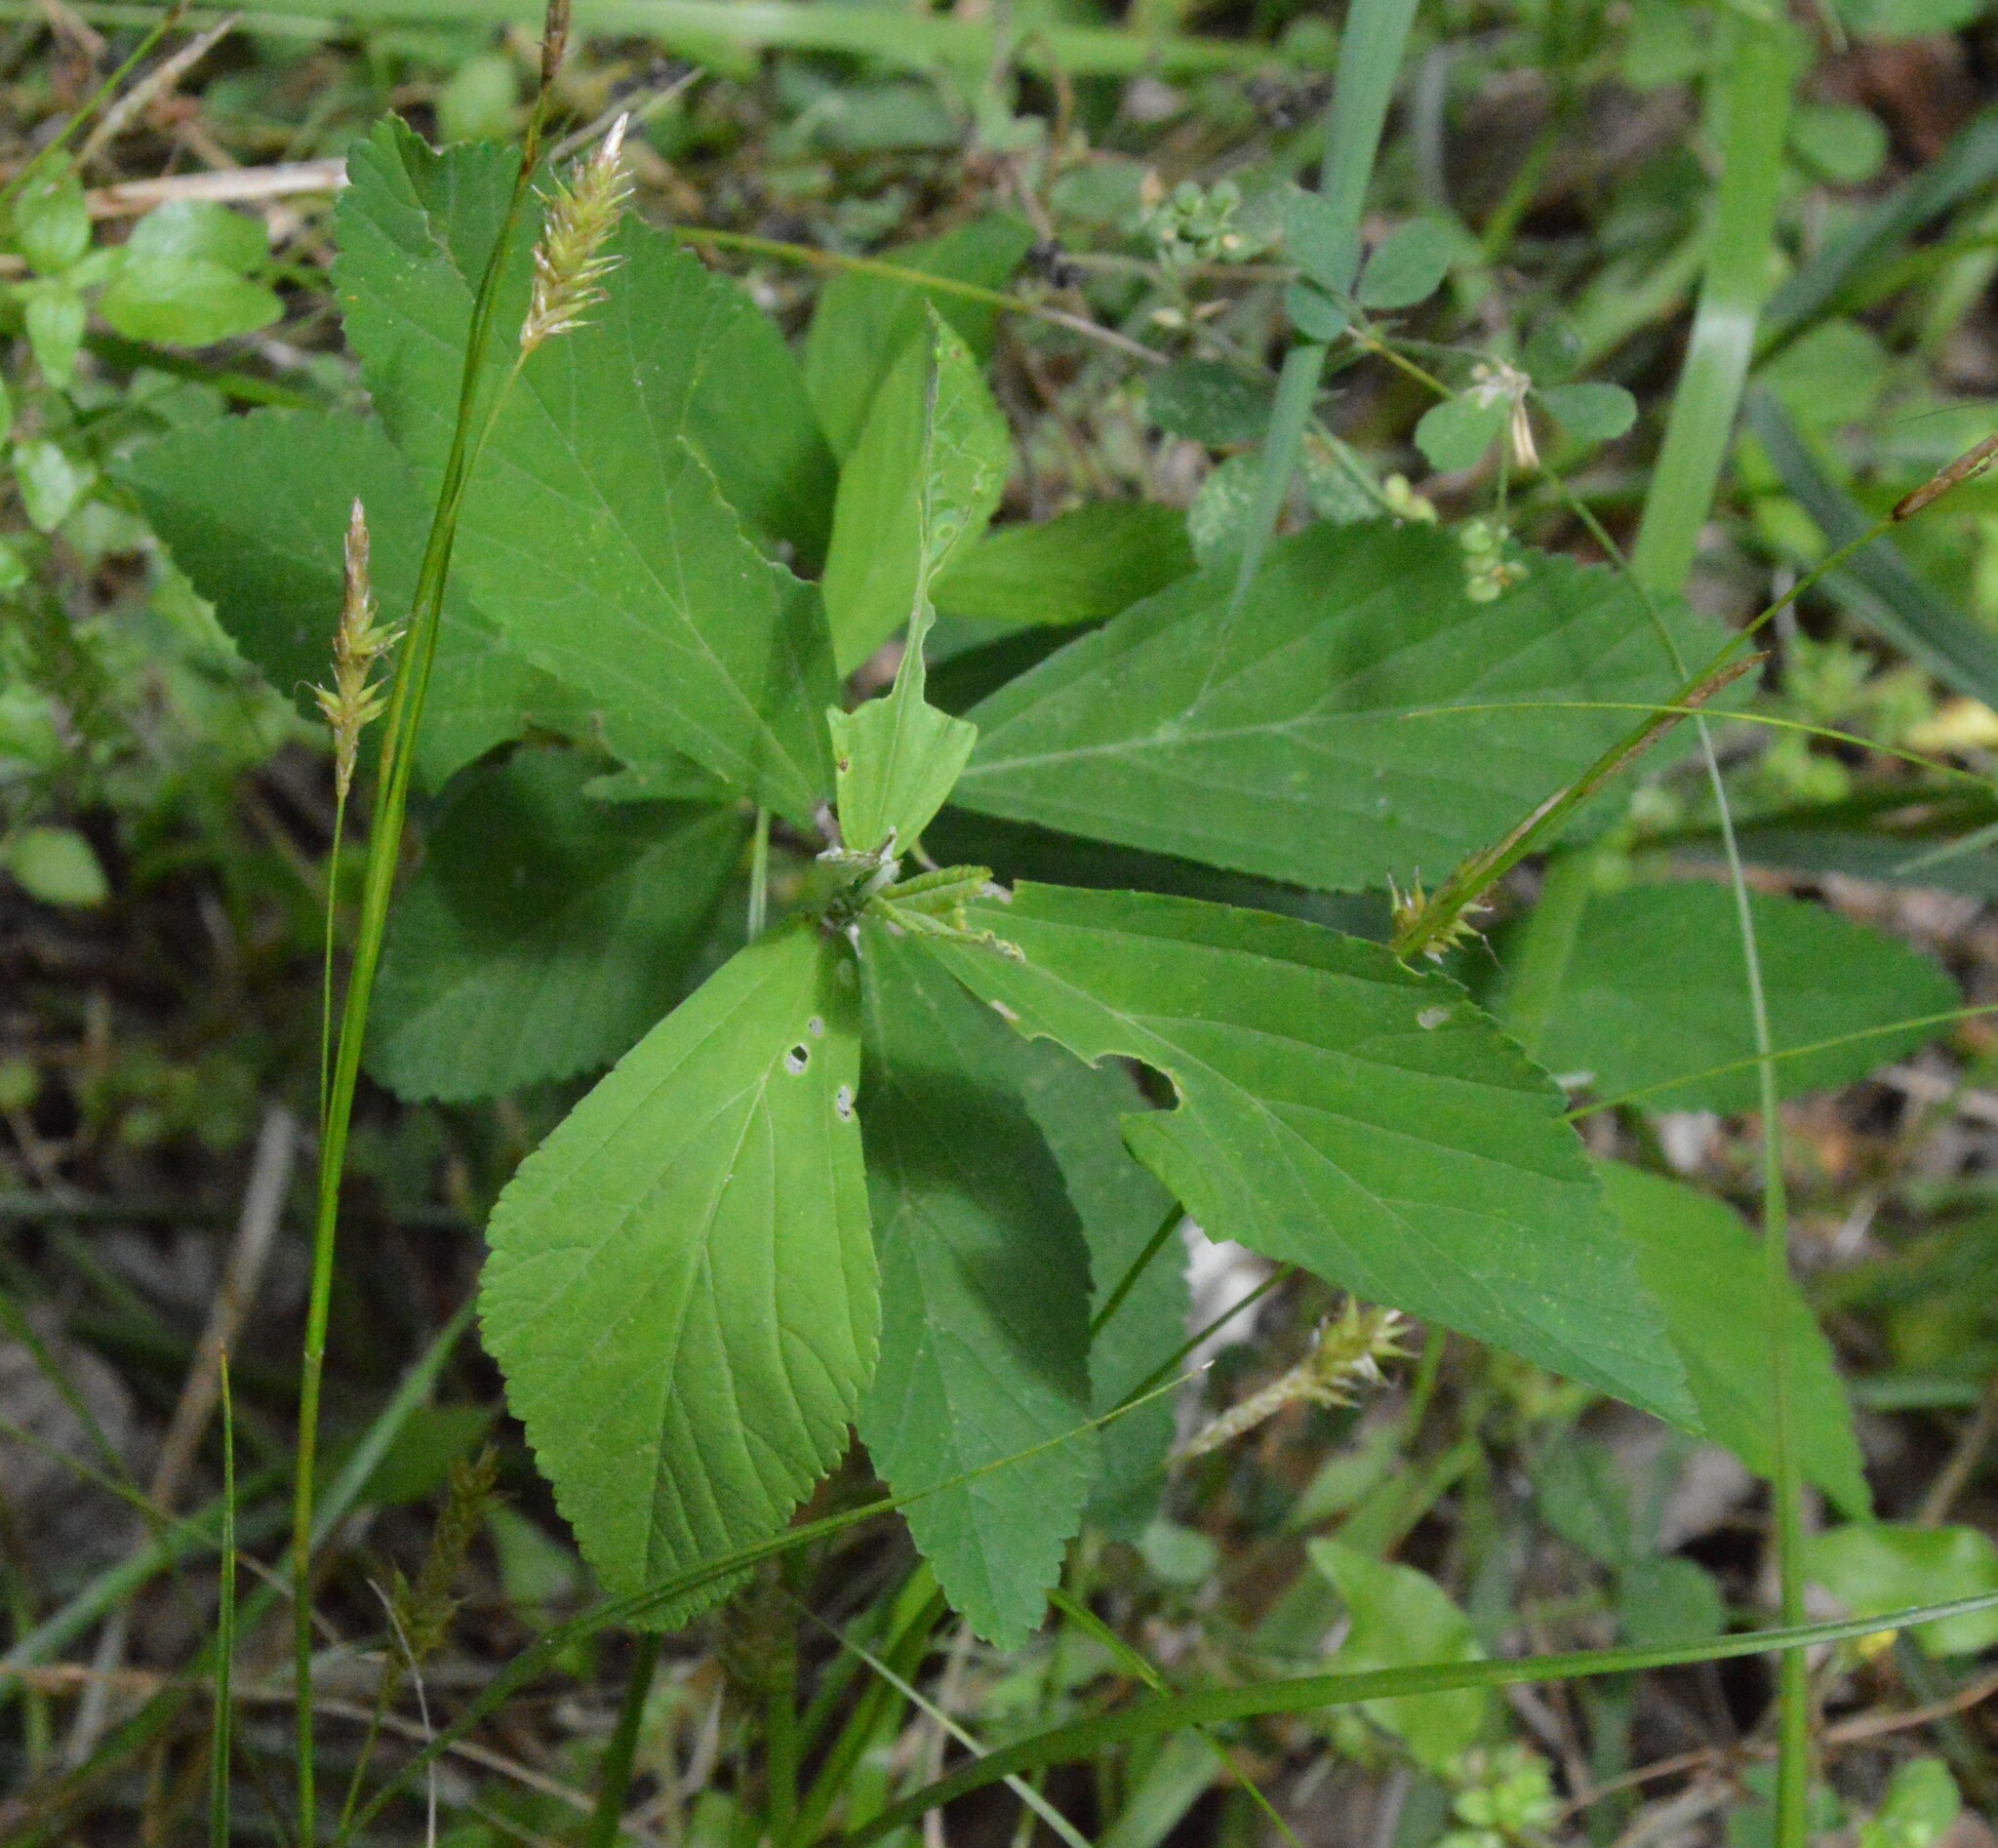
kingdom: Plantae
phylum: Tracheophyta
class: Magnoliopsida
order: Malvales
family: Malvaceae
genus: Sida
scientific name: Sida rhombifolia
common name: Queensland-hemp
